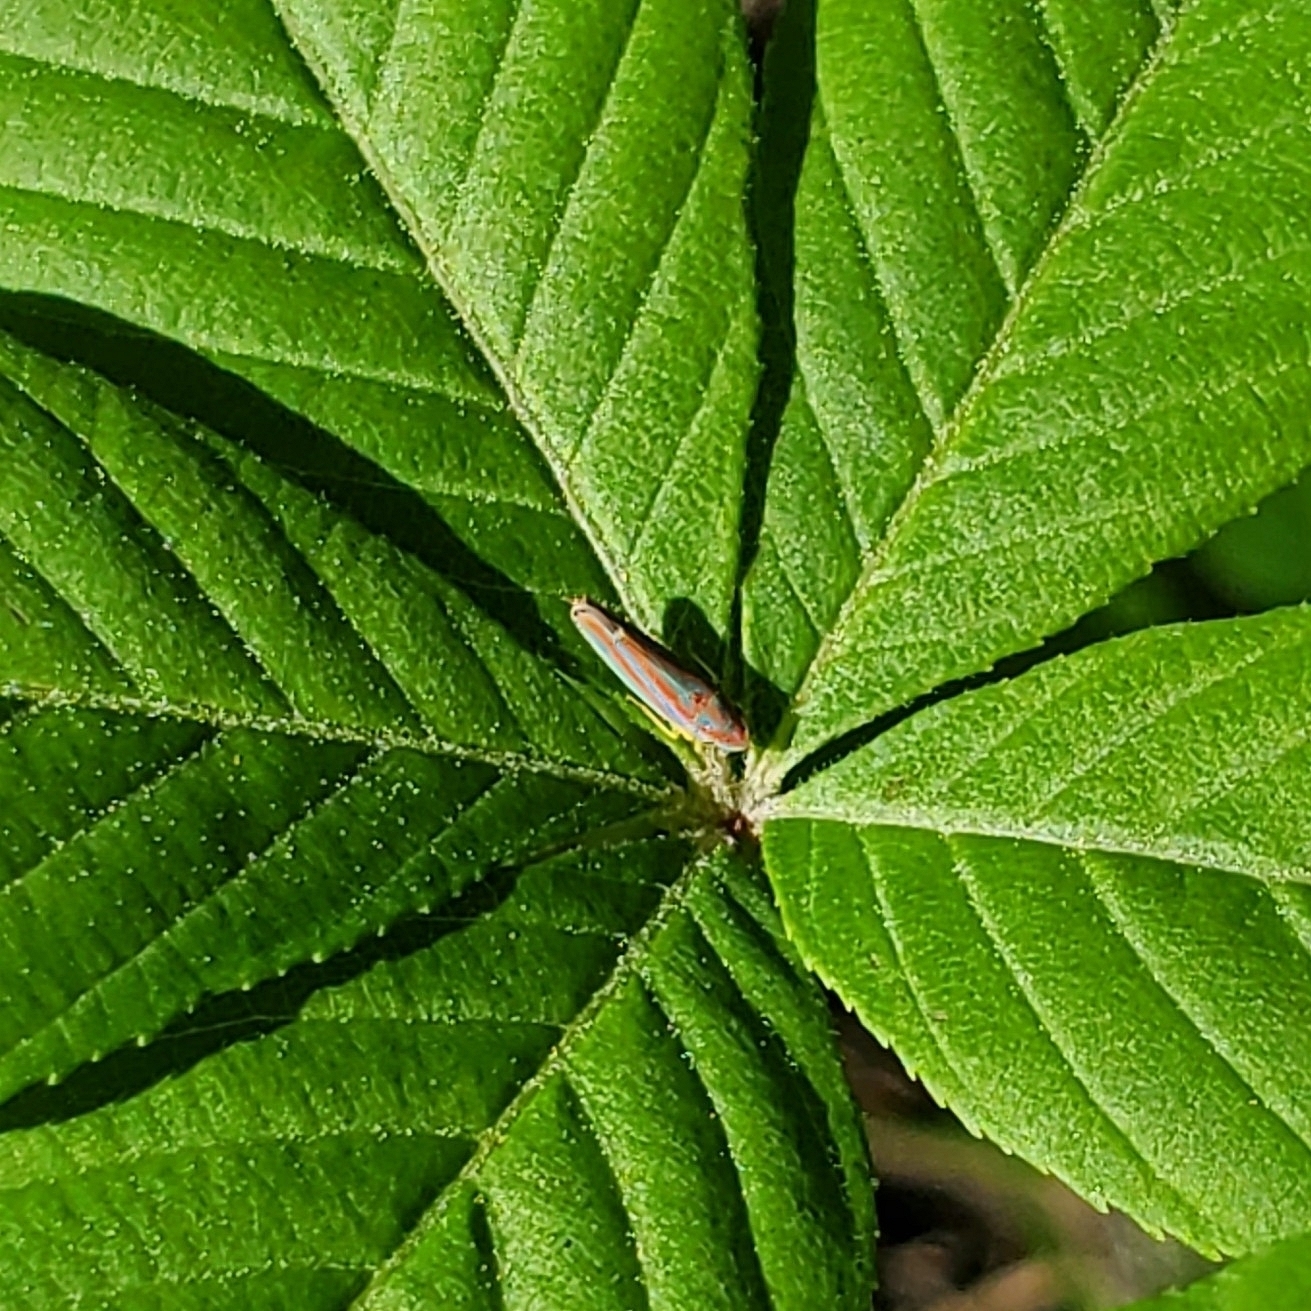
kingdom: Animalia
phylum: Arthropoda
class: Insecta
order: Hemiptera
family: Cicadellidae
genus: Graphocephala
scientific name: Graphocephala versuta
